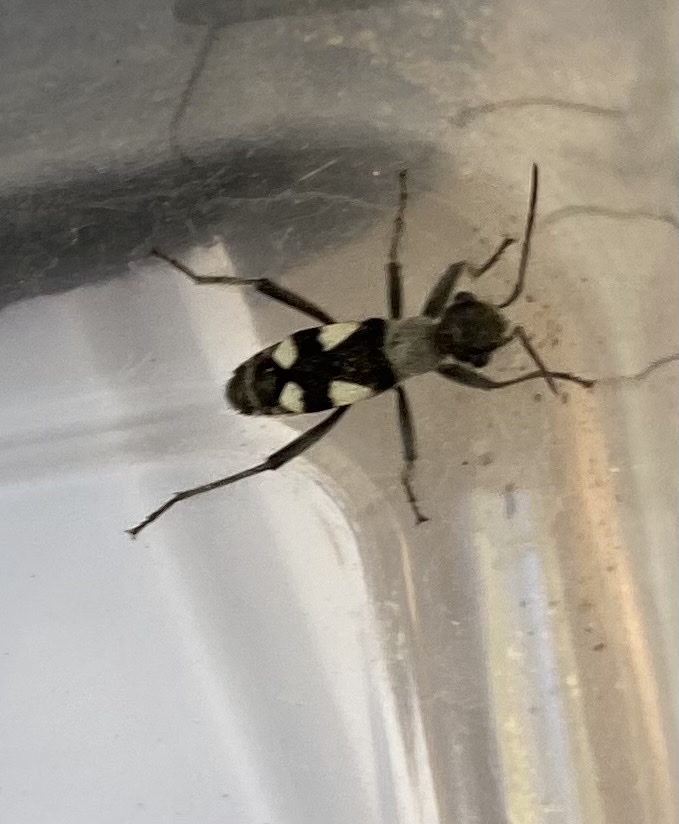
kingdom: Animalia
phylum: Arthropoda
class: Insecta
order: Hemiptera
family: Largidae
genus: Arhaphe
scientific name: Arhaphe arguta
